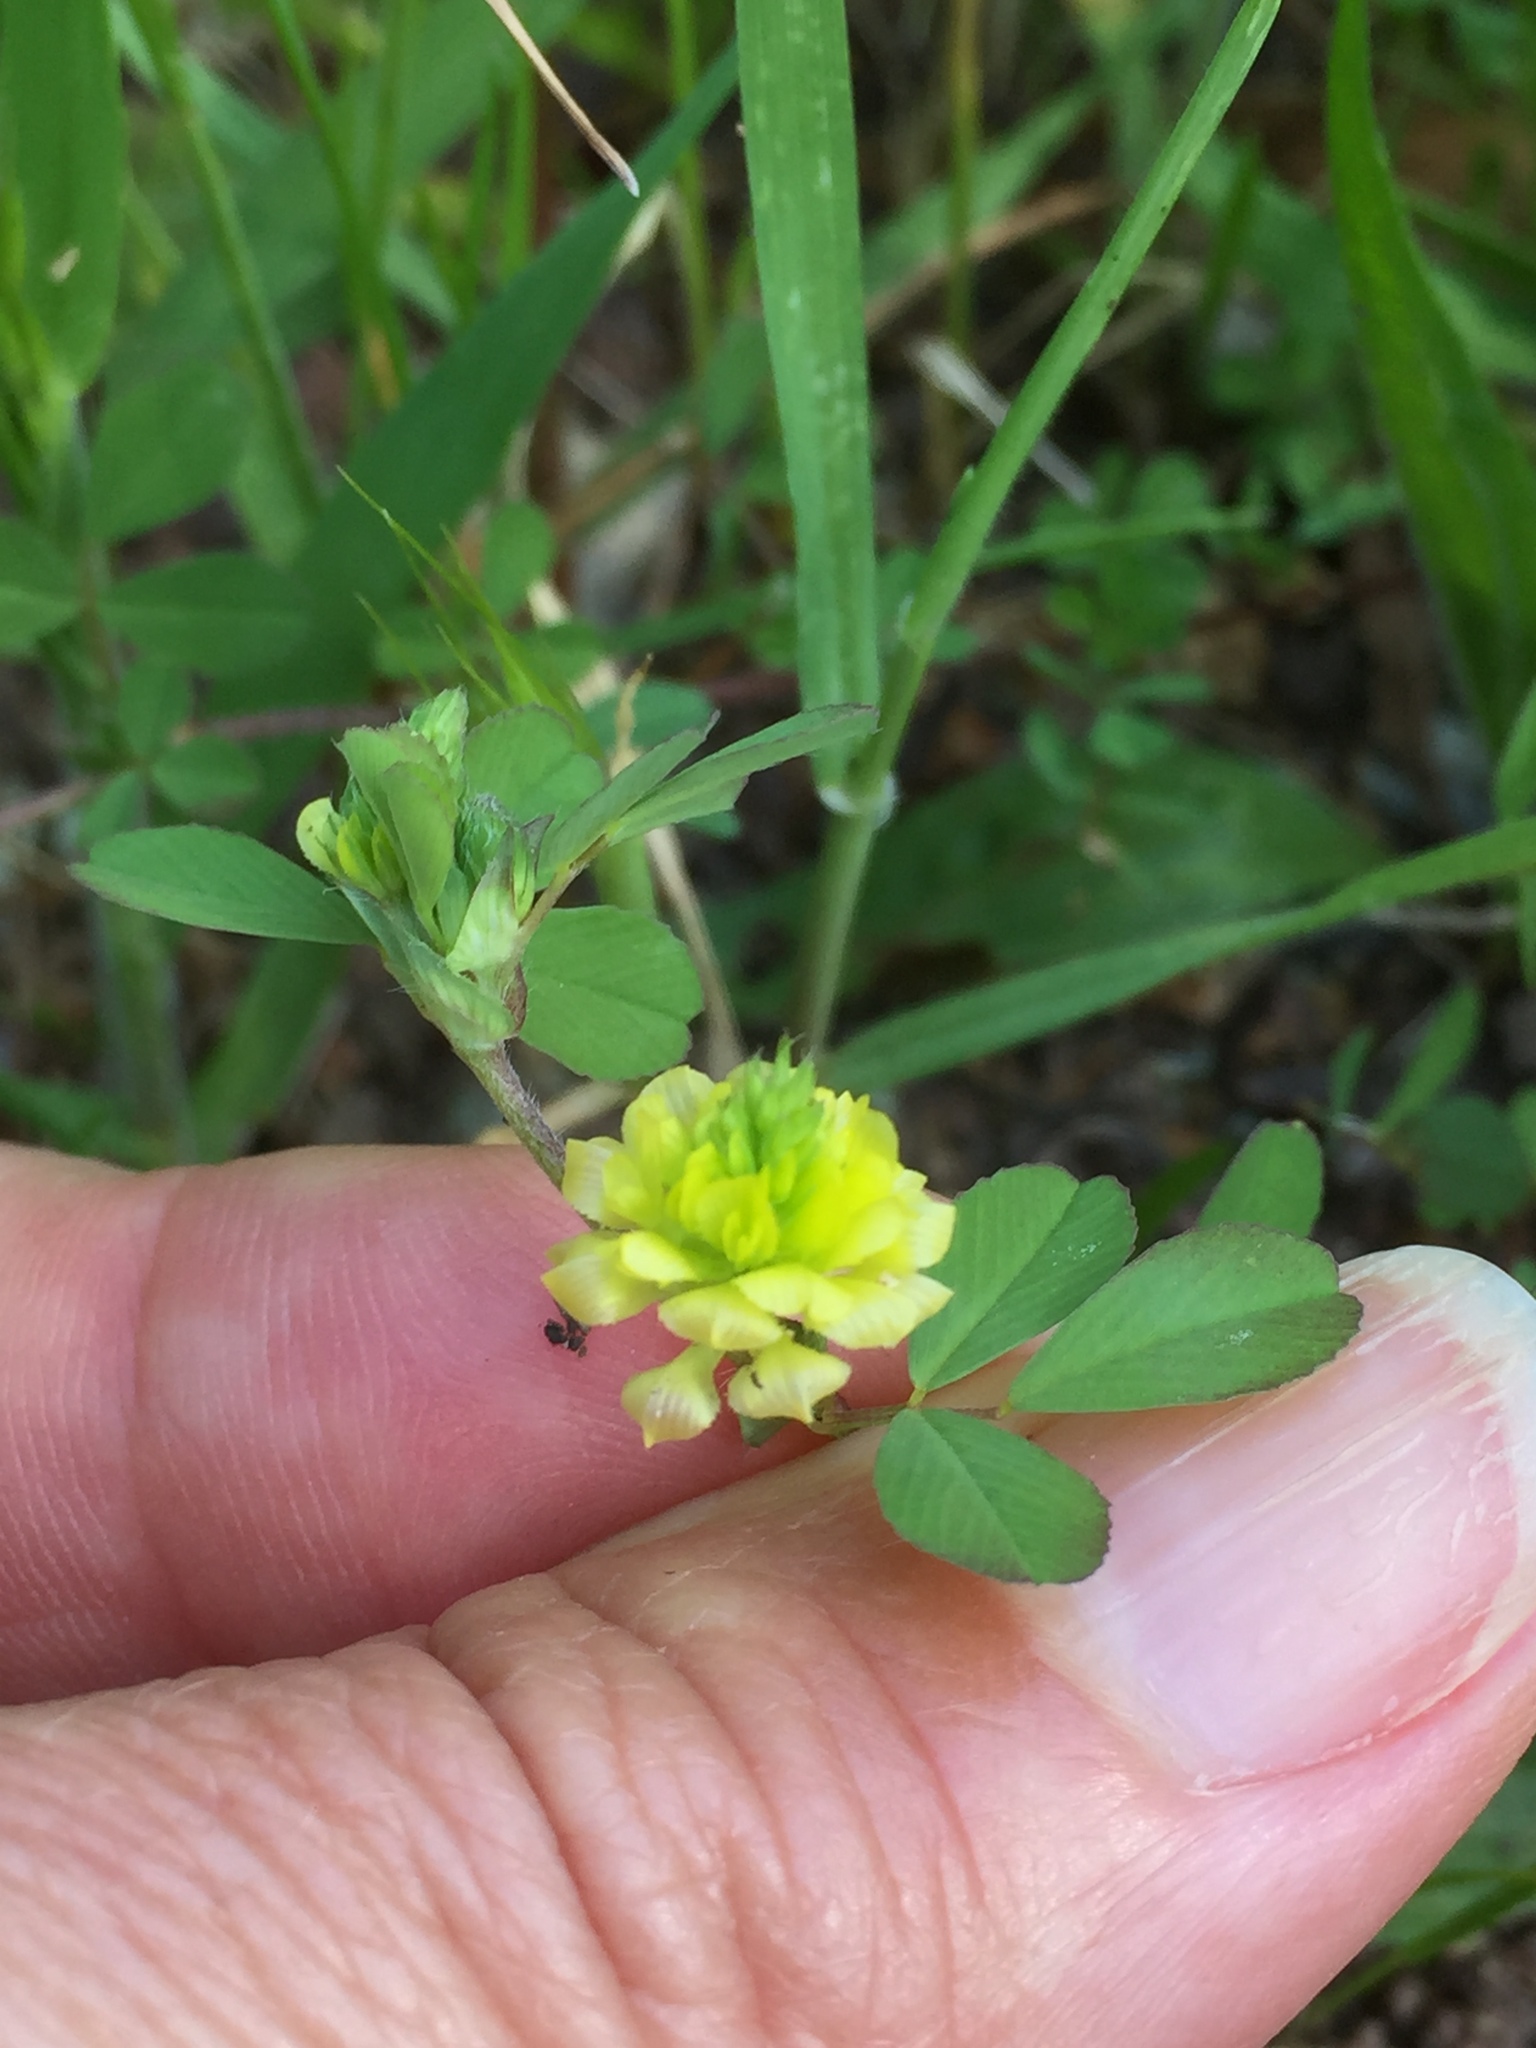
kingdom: Plantae
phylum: Tracheophyta
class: Magnoliopsida
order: Fabales
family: Fabaceae
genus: Trifolium
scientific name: Trifolium campestre
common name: Field clover
